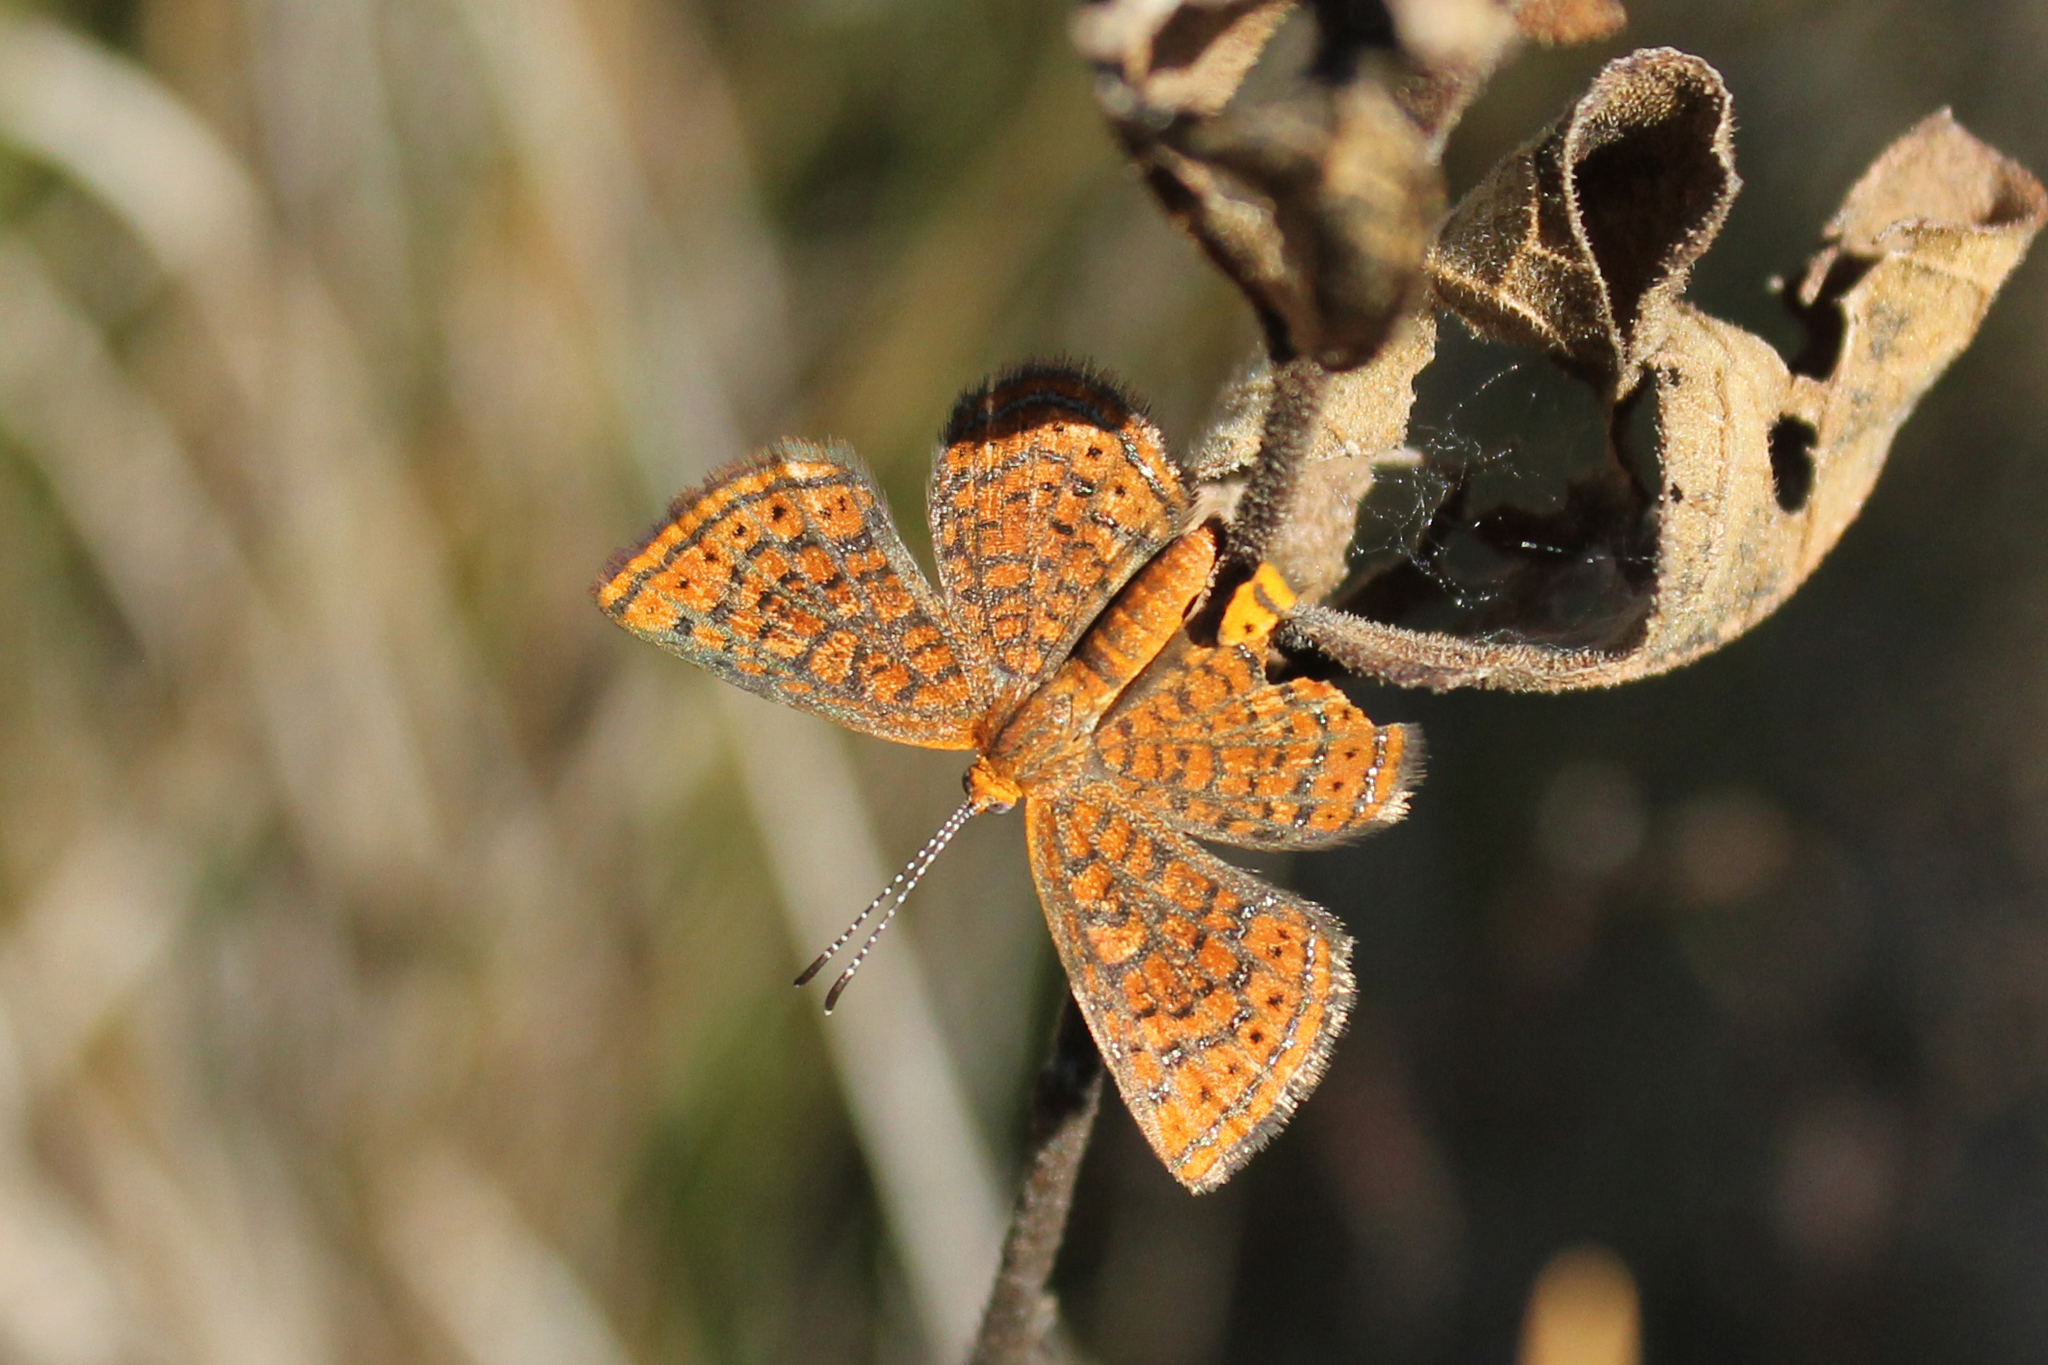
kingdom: Animalia
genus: Calephelis
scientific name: Calephelis virginiensis
